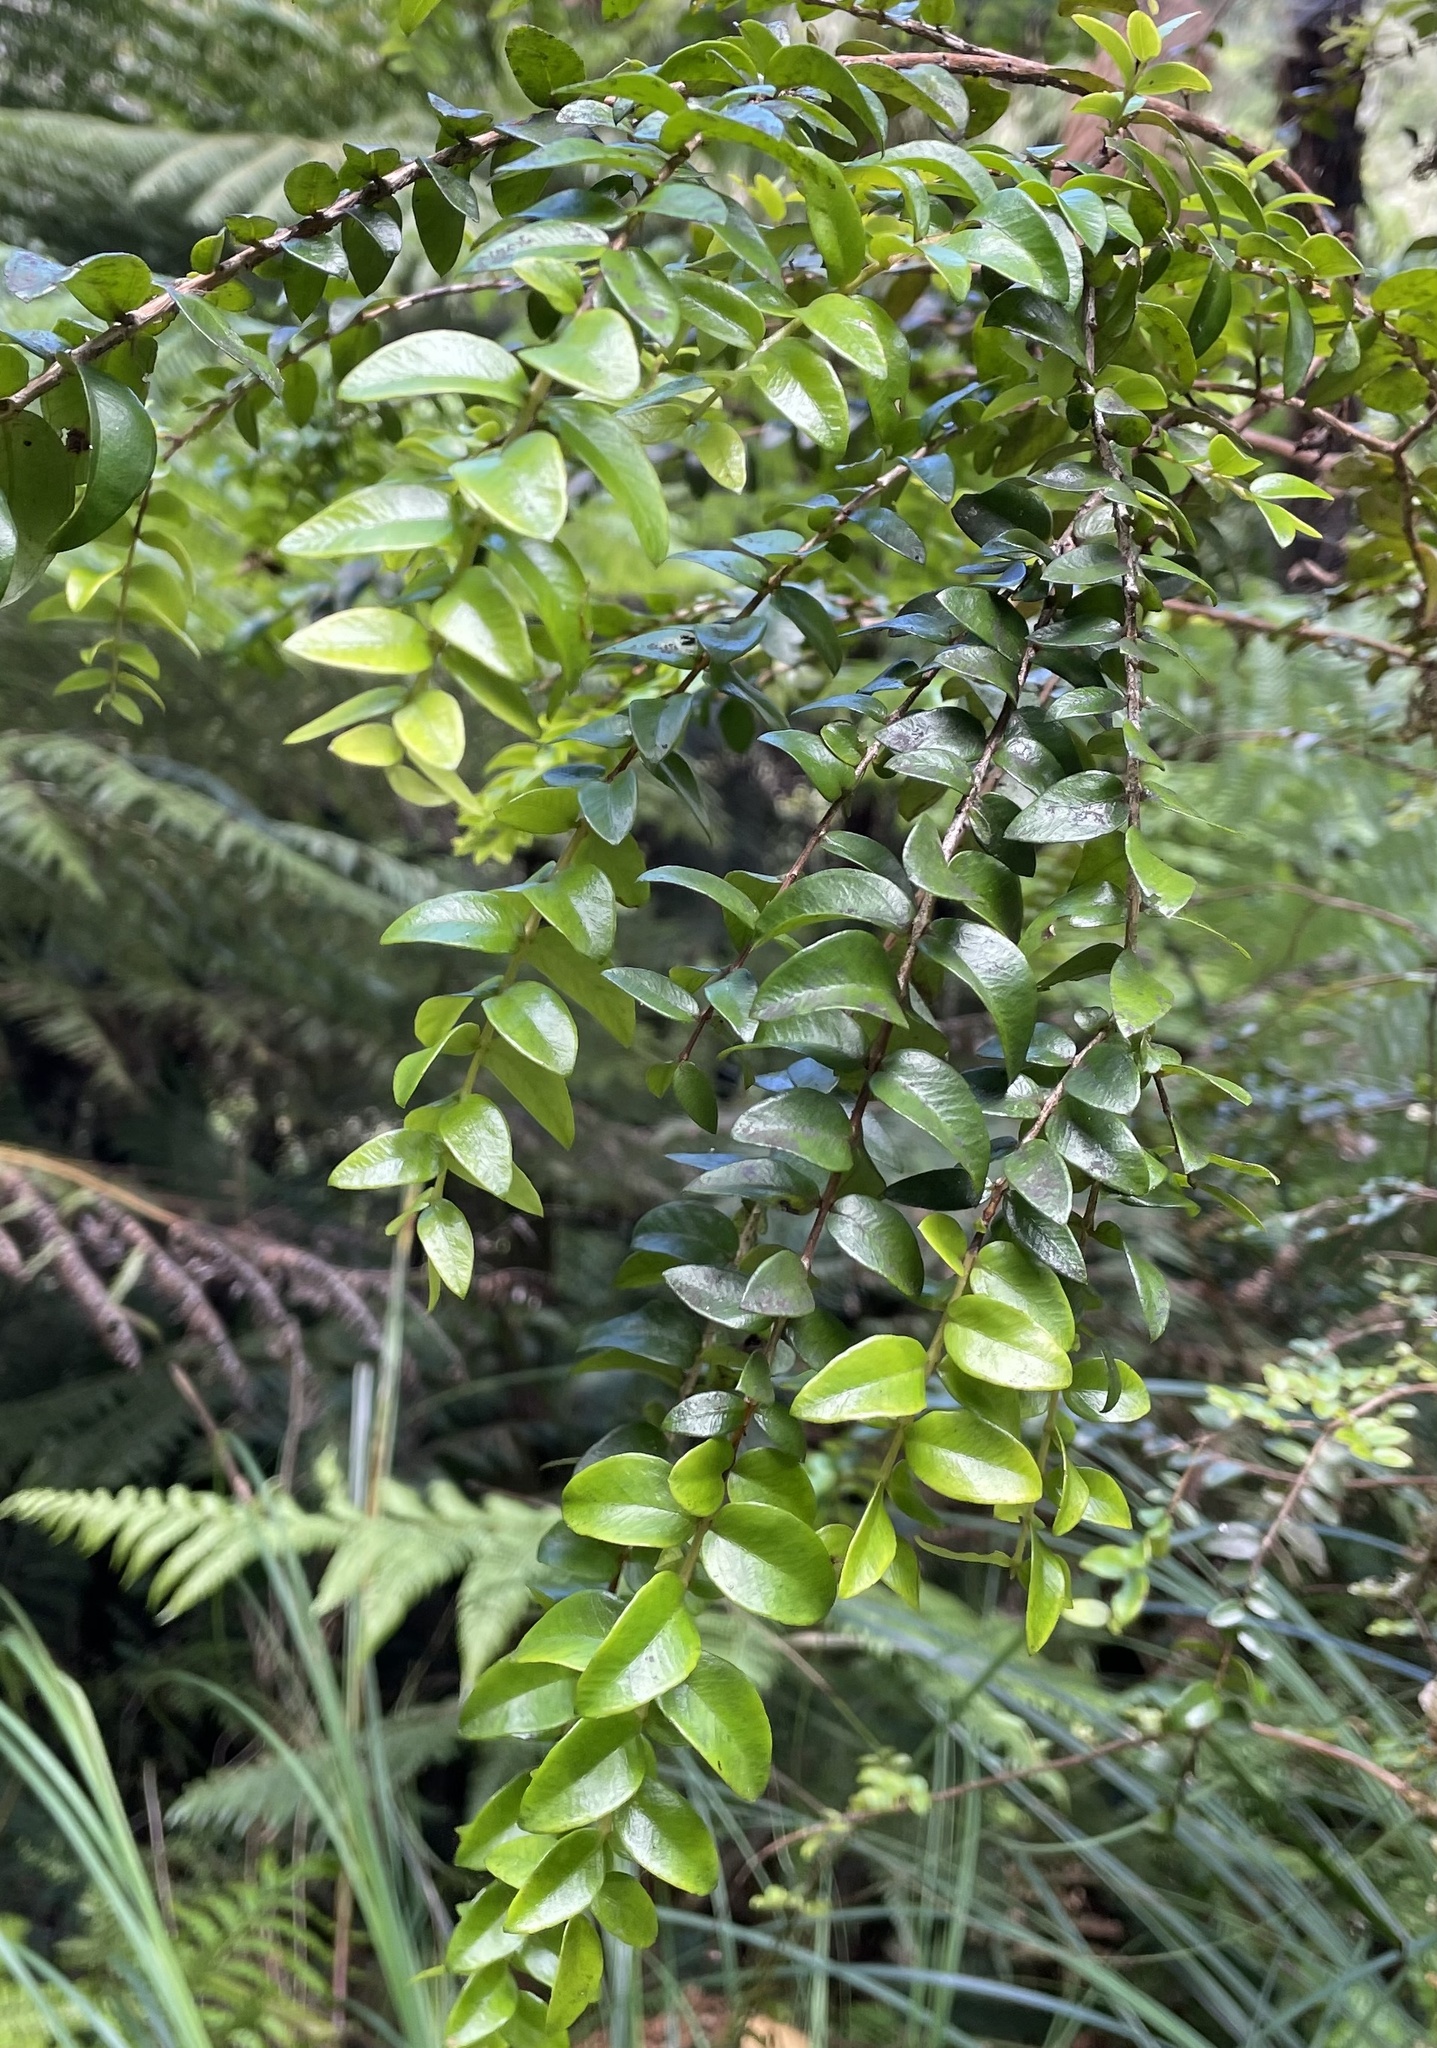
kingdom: Plantae
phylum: Tracheophyta
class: Magnoliopsida
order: Myrtales
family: Myrtaceae
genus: Metrosideros
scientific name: Metrosideros diffusa
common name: Small ratavine
